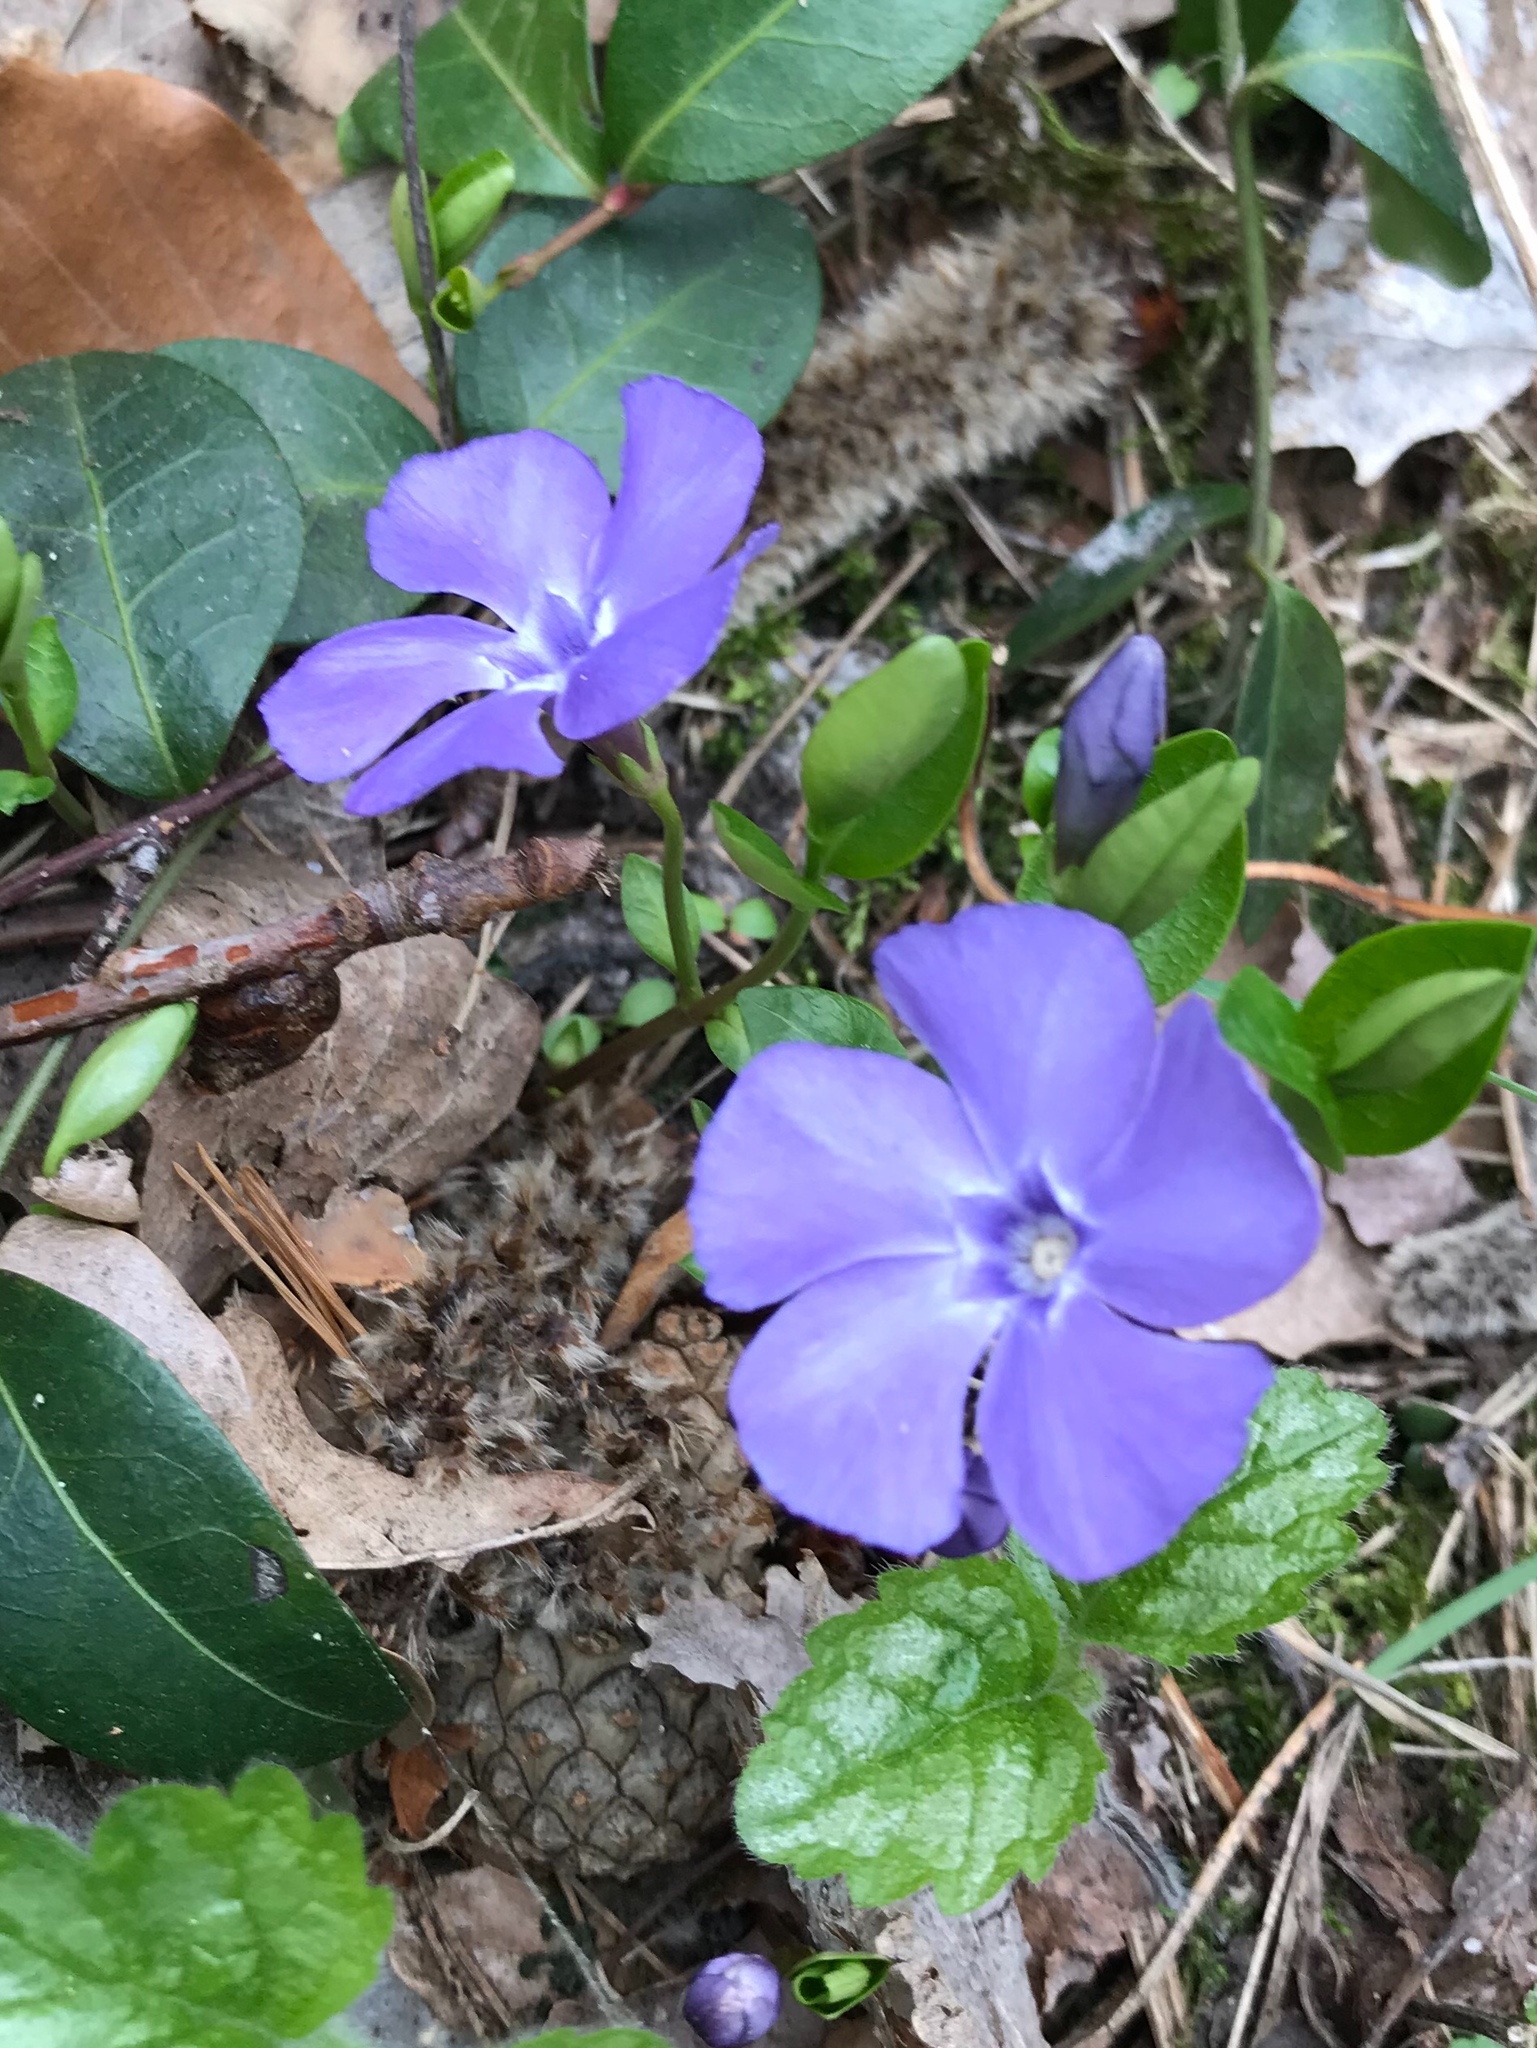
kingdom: Plantae
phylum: Tracheophyta
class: Magnoliopsida
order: Gentianales
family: Apocynaceae
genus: Vinca
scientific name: Vinca minor
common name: Lesser periwinkle
